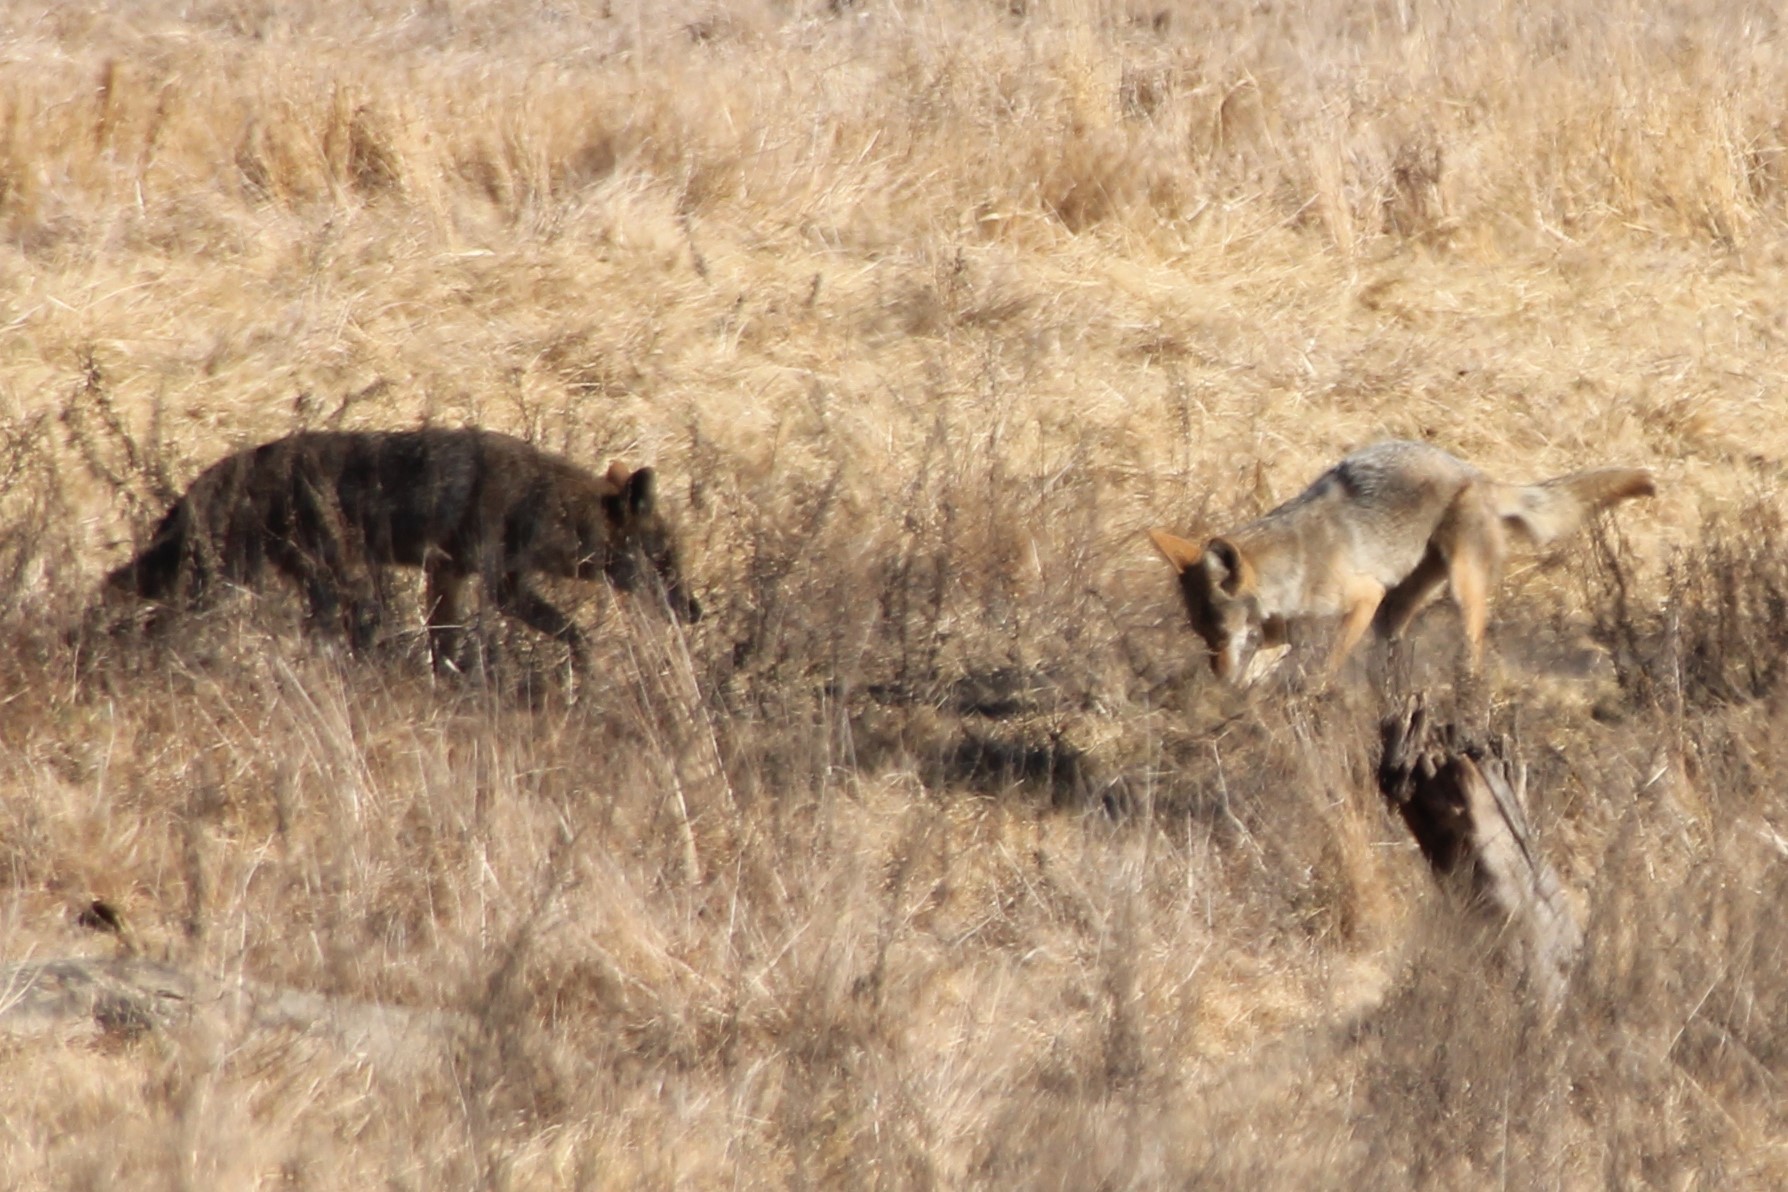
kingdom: Animalia
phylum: Chordata
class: Mammalia
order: Carnivora
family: Canidae
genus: Canis
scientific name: Canis latrans
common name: Coyote
